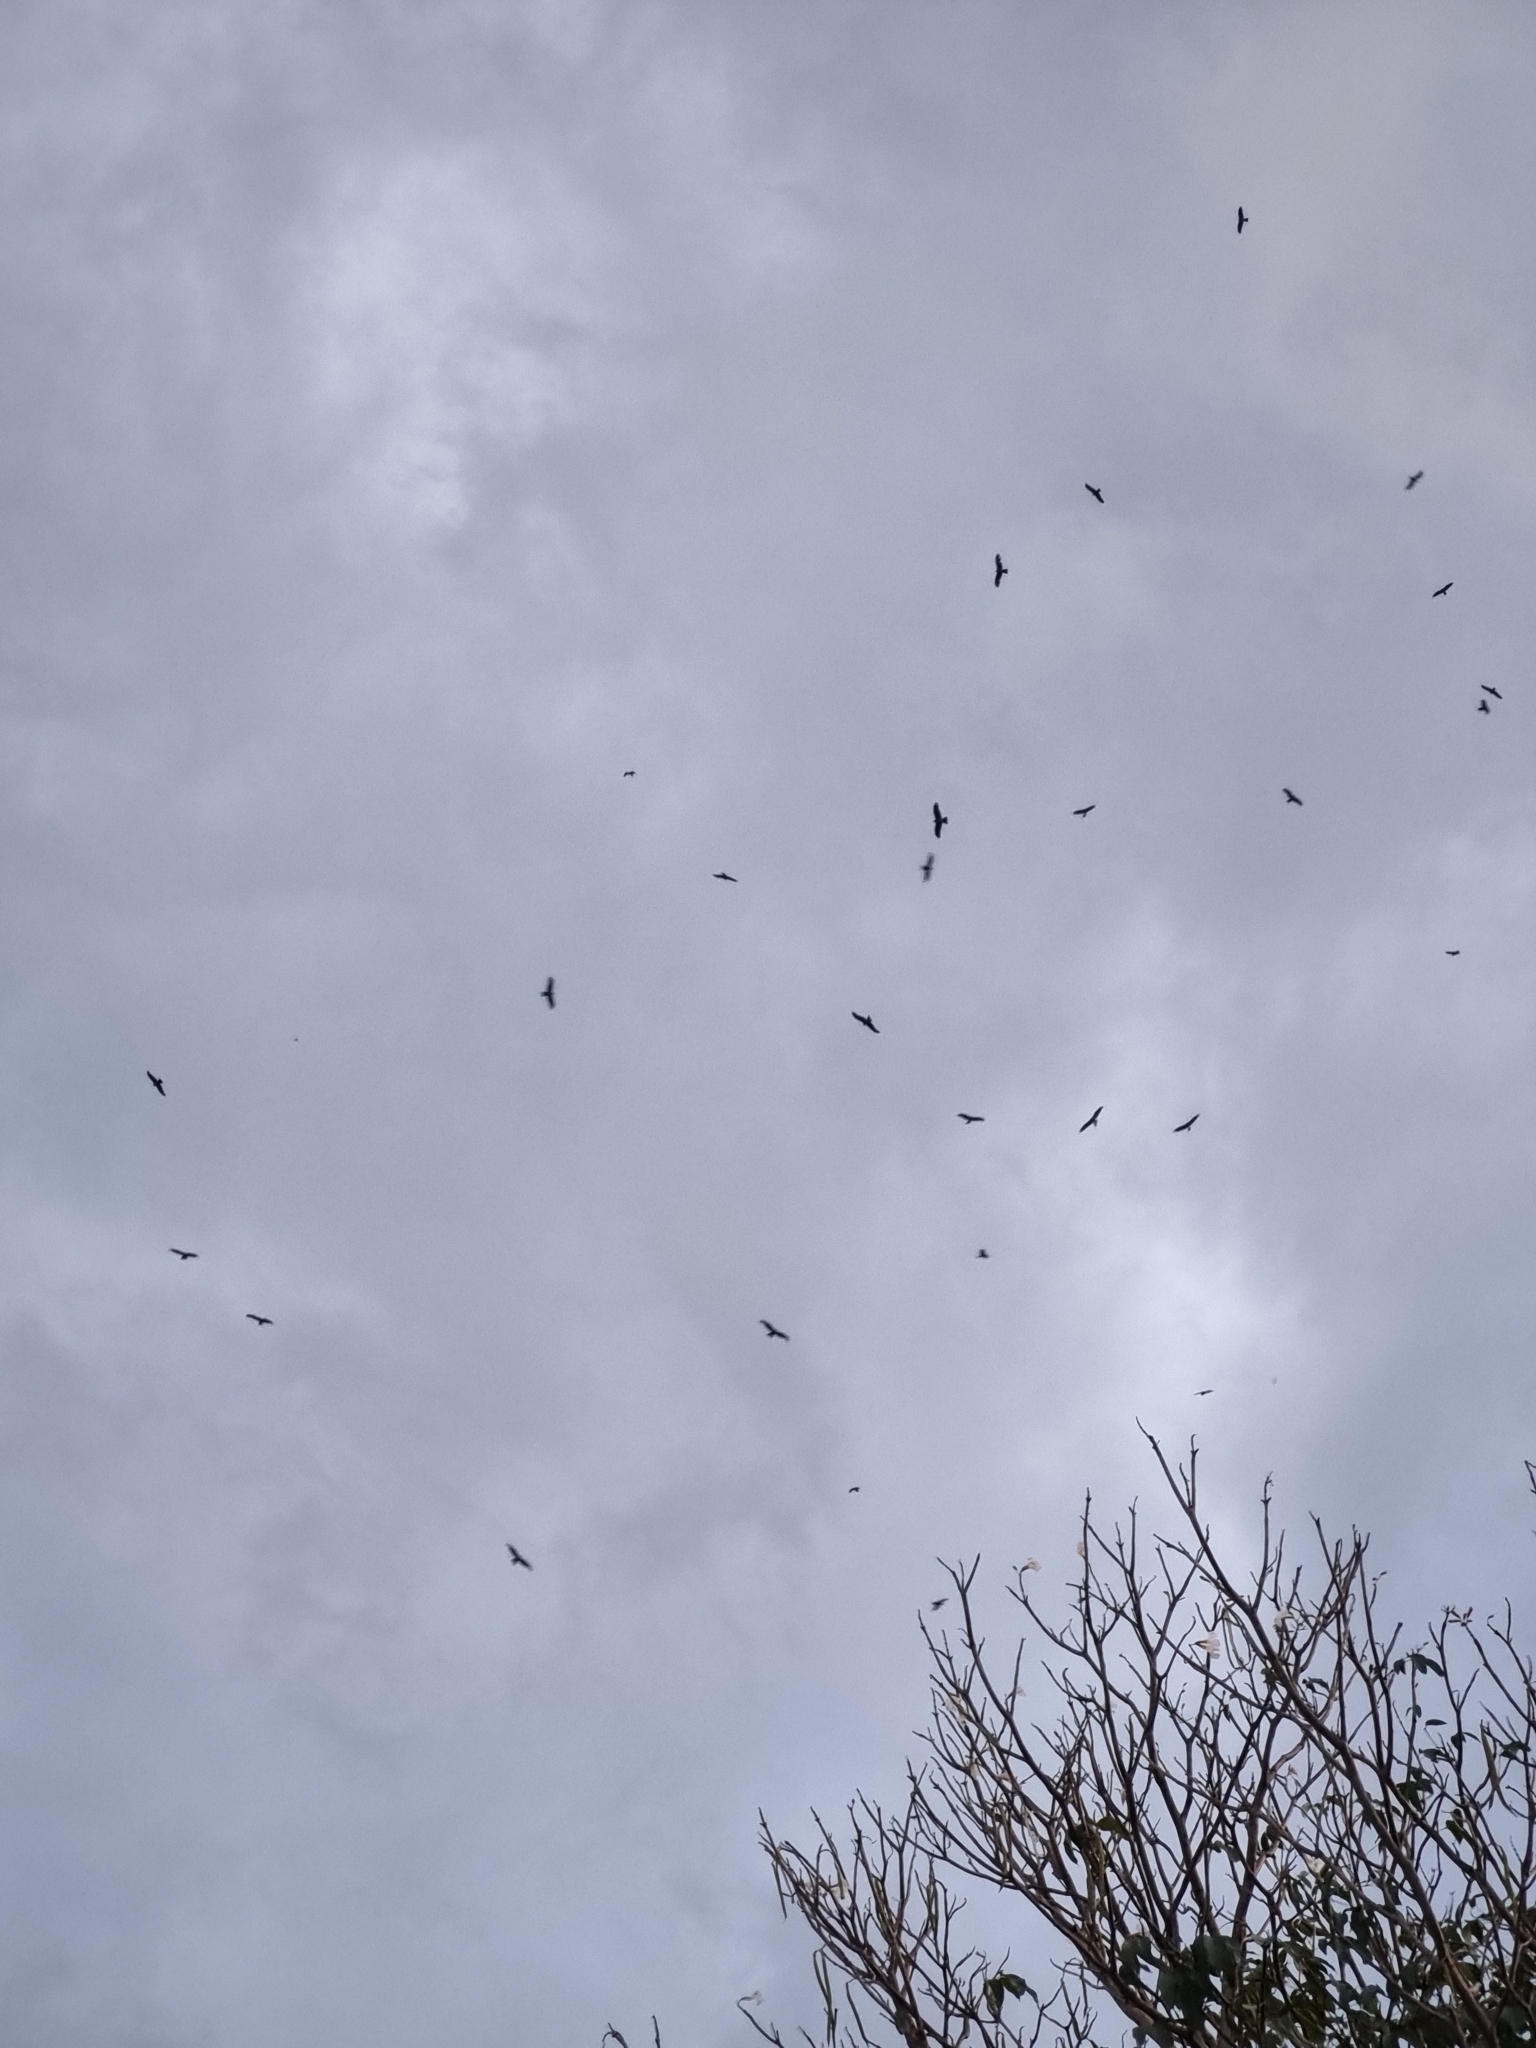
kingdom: Animalia
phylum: Chordata
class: Aves
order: Accipitriformes
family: Accipitridae
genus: Milvus
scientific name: Milvus migrans
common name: Black kite
